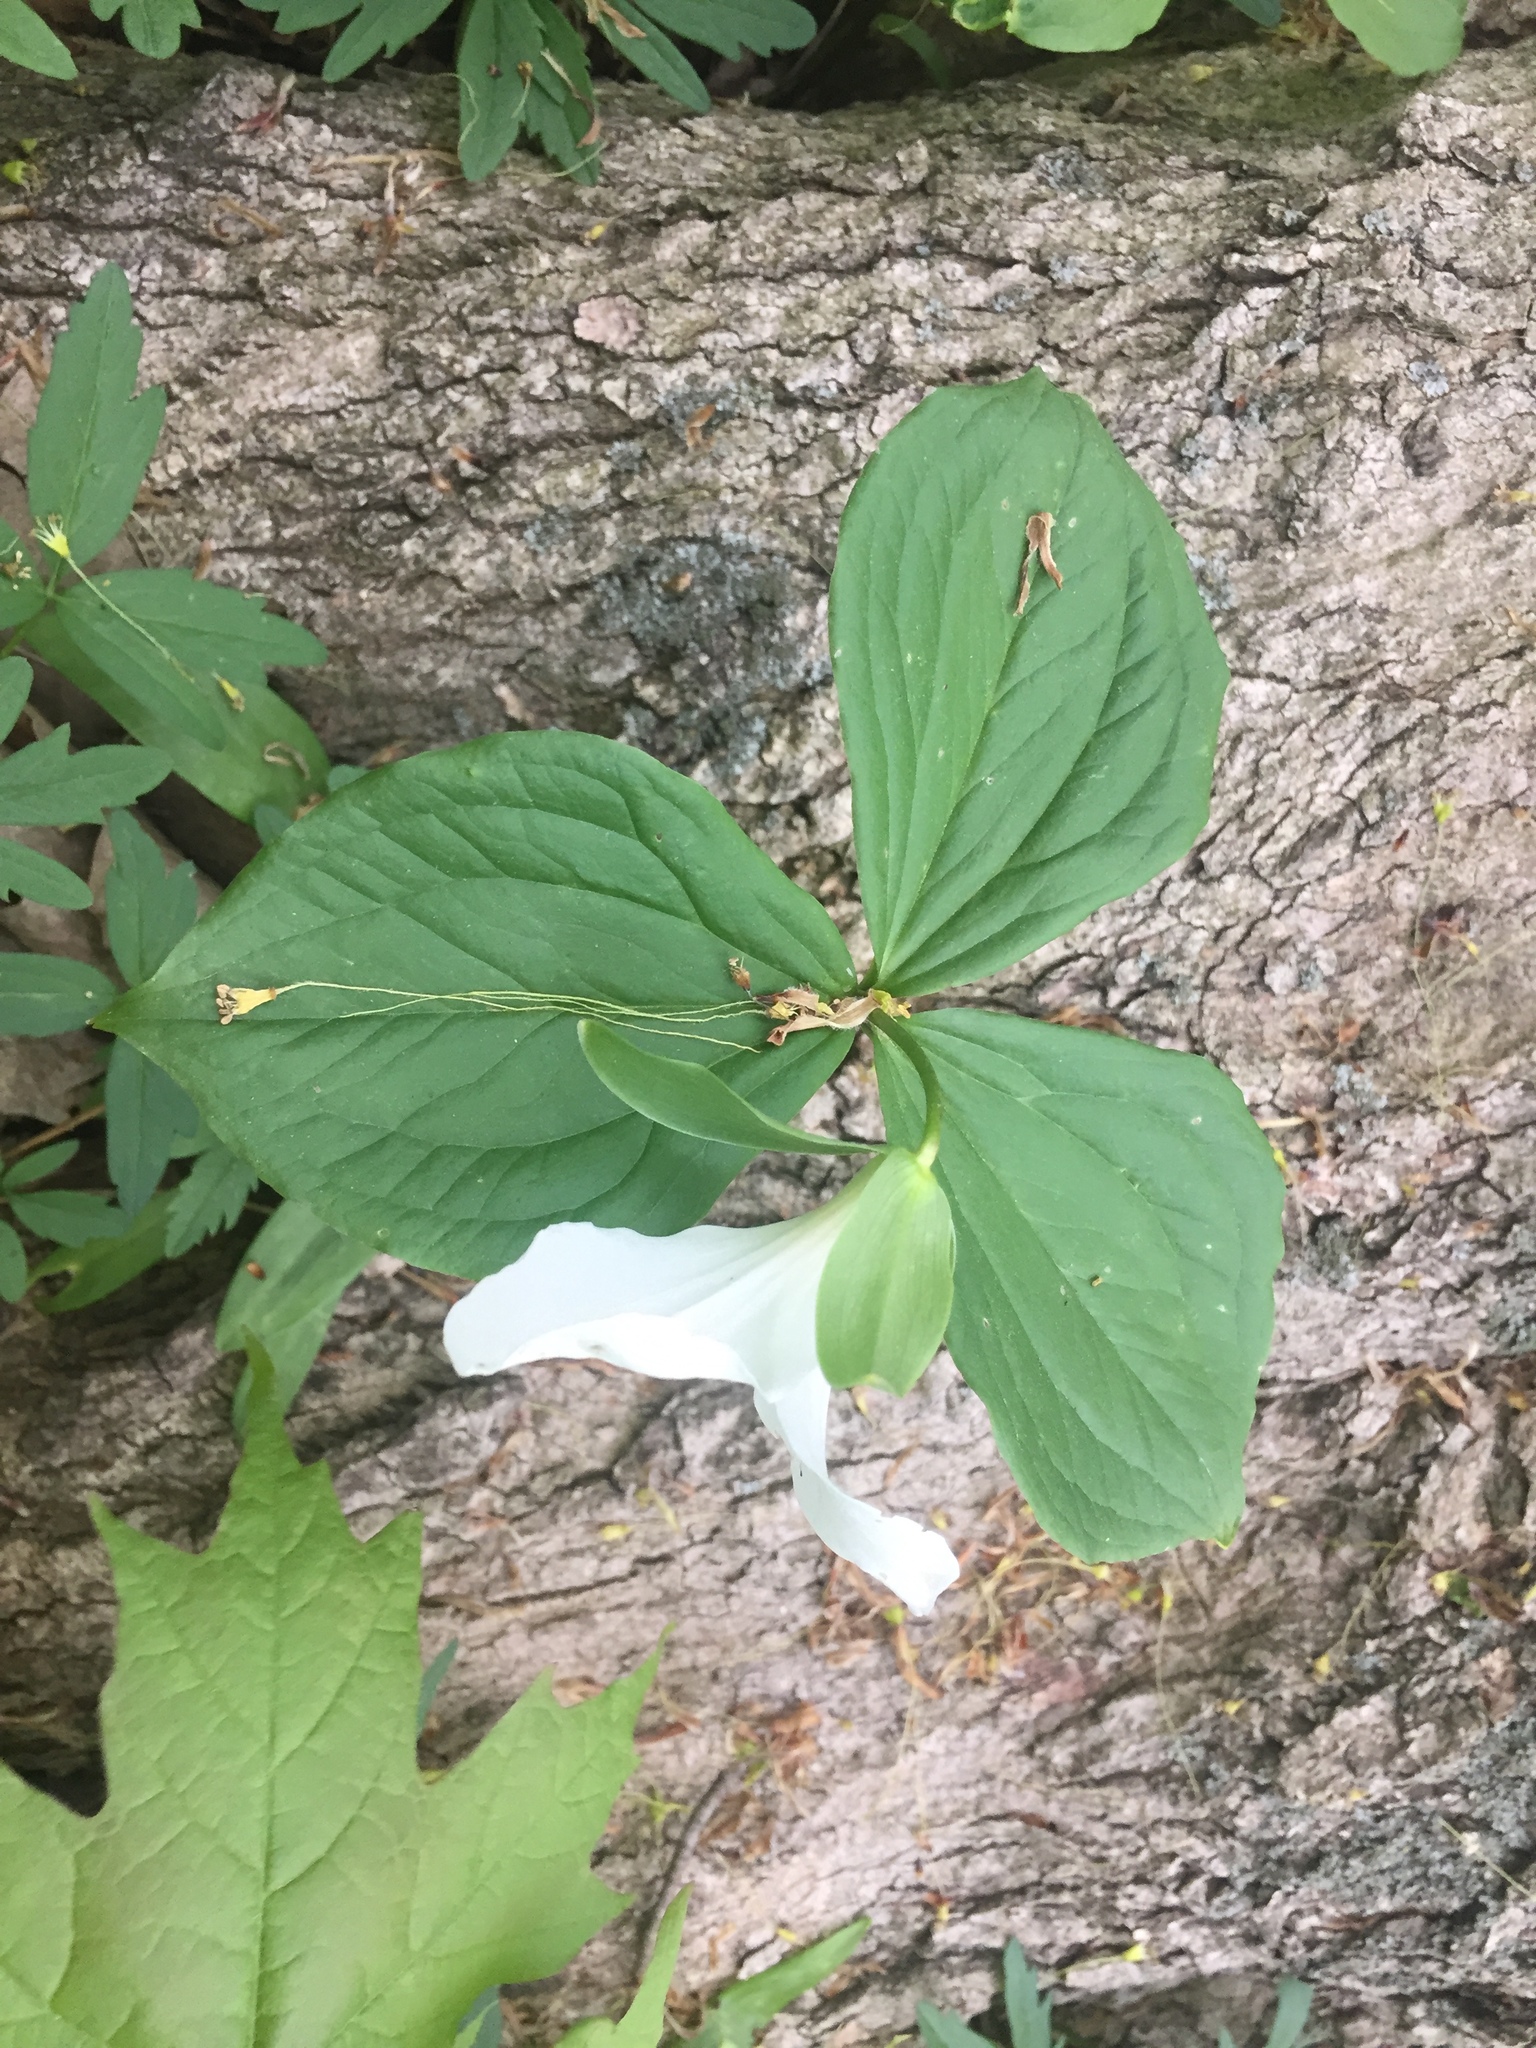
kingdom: Plantae
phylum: Tracheophyta
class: Liliopsida
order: Liliales
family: Melanthiaceae
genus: Trillium
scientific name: Trillium grandiflorum
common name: Great white trillium
